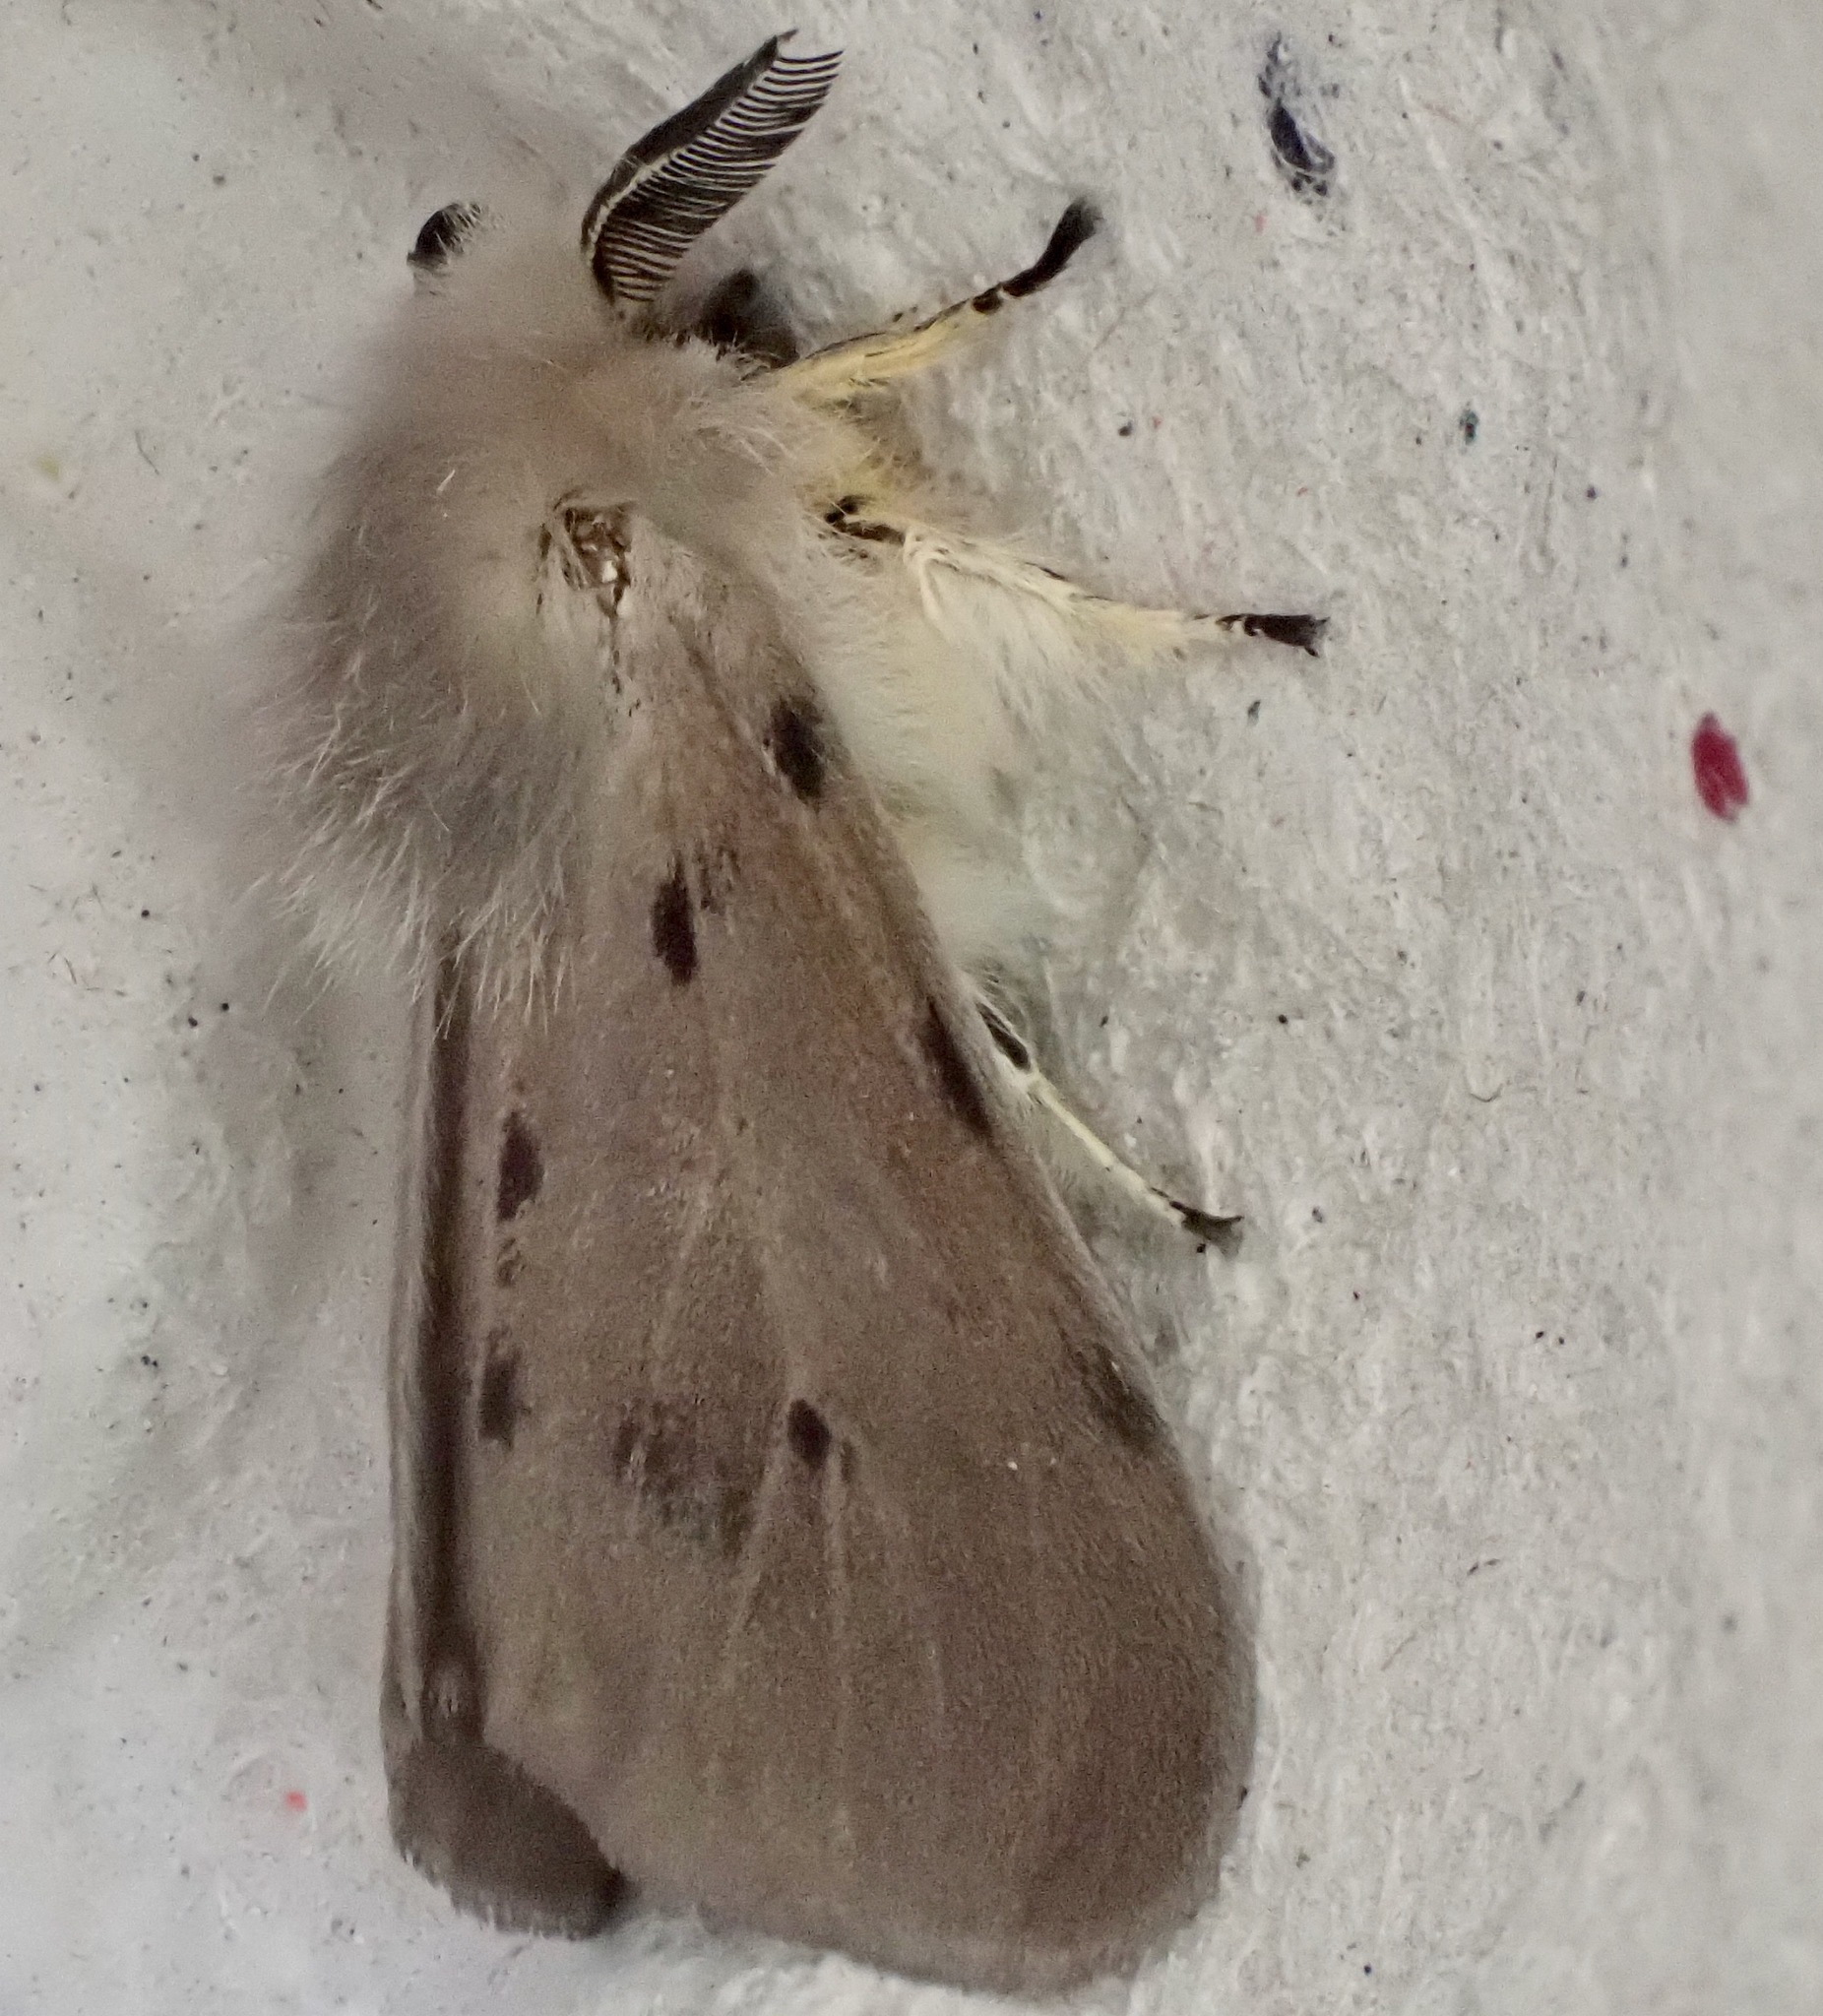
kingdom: Animalia
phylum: Arthropoda
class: Insecta
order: Lepidoptera
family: Erebidae
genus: Diaphora
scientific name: Diaphora mendica
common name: Muslin moth
